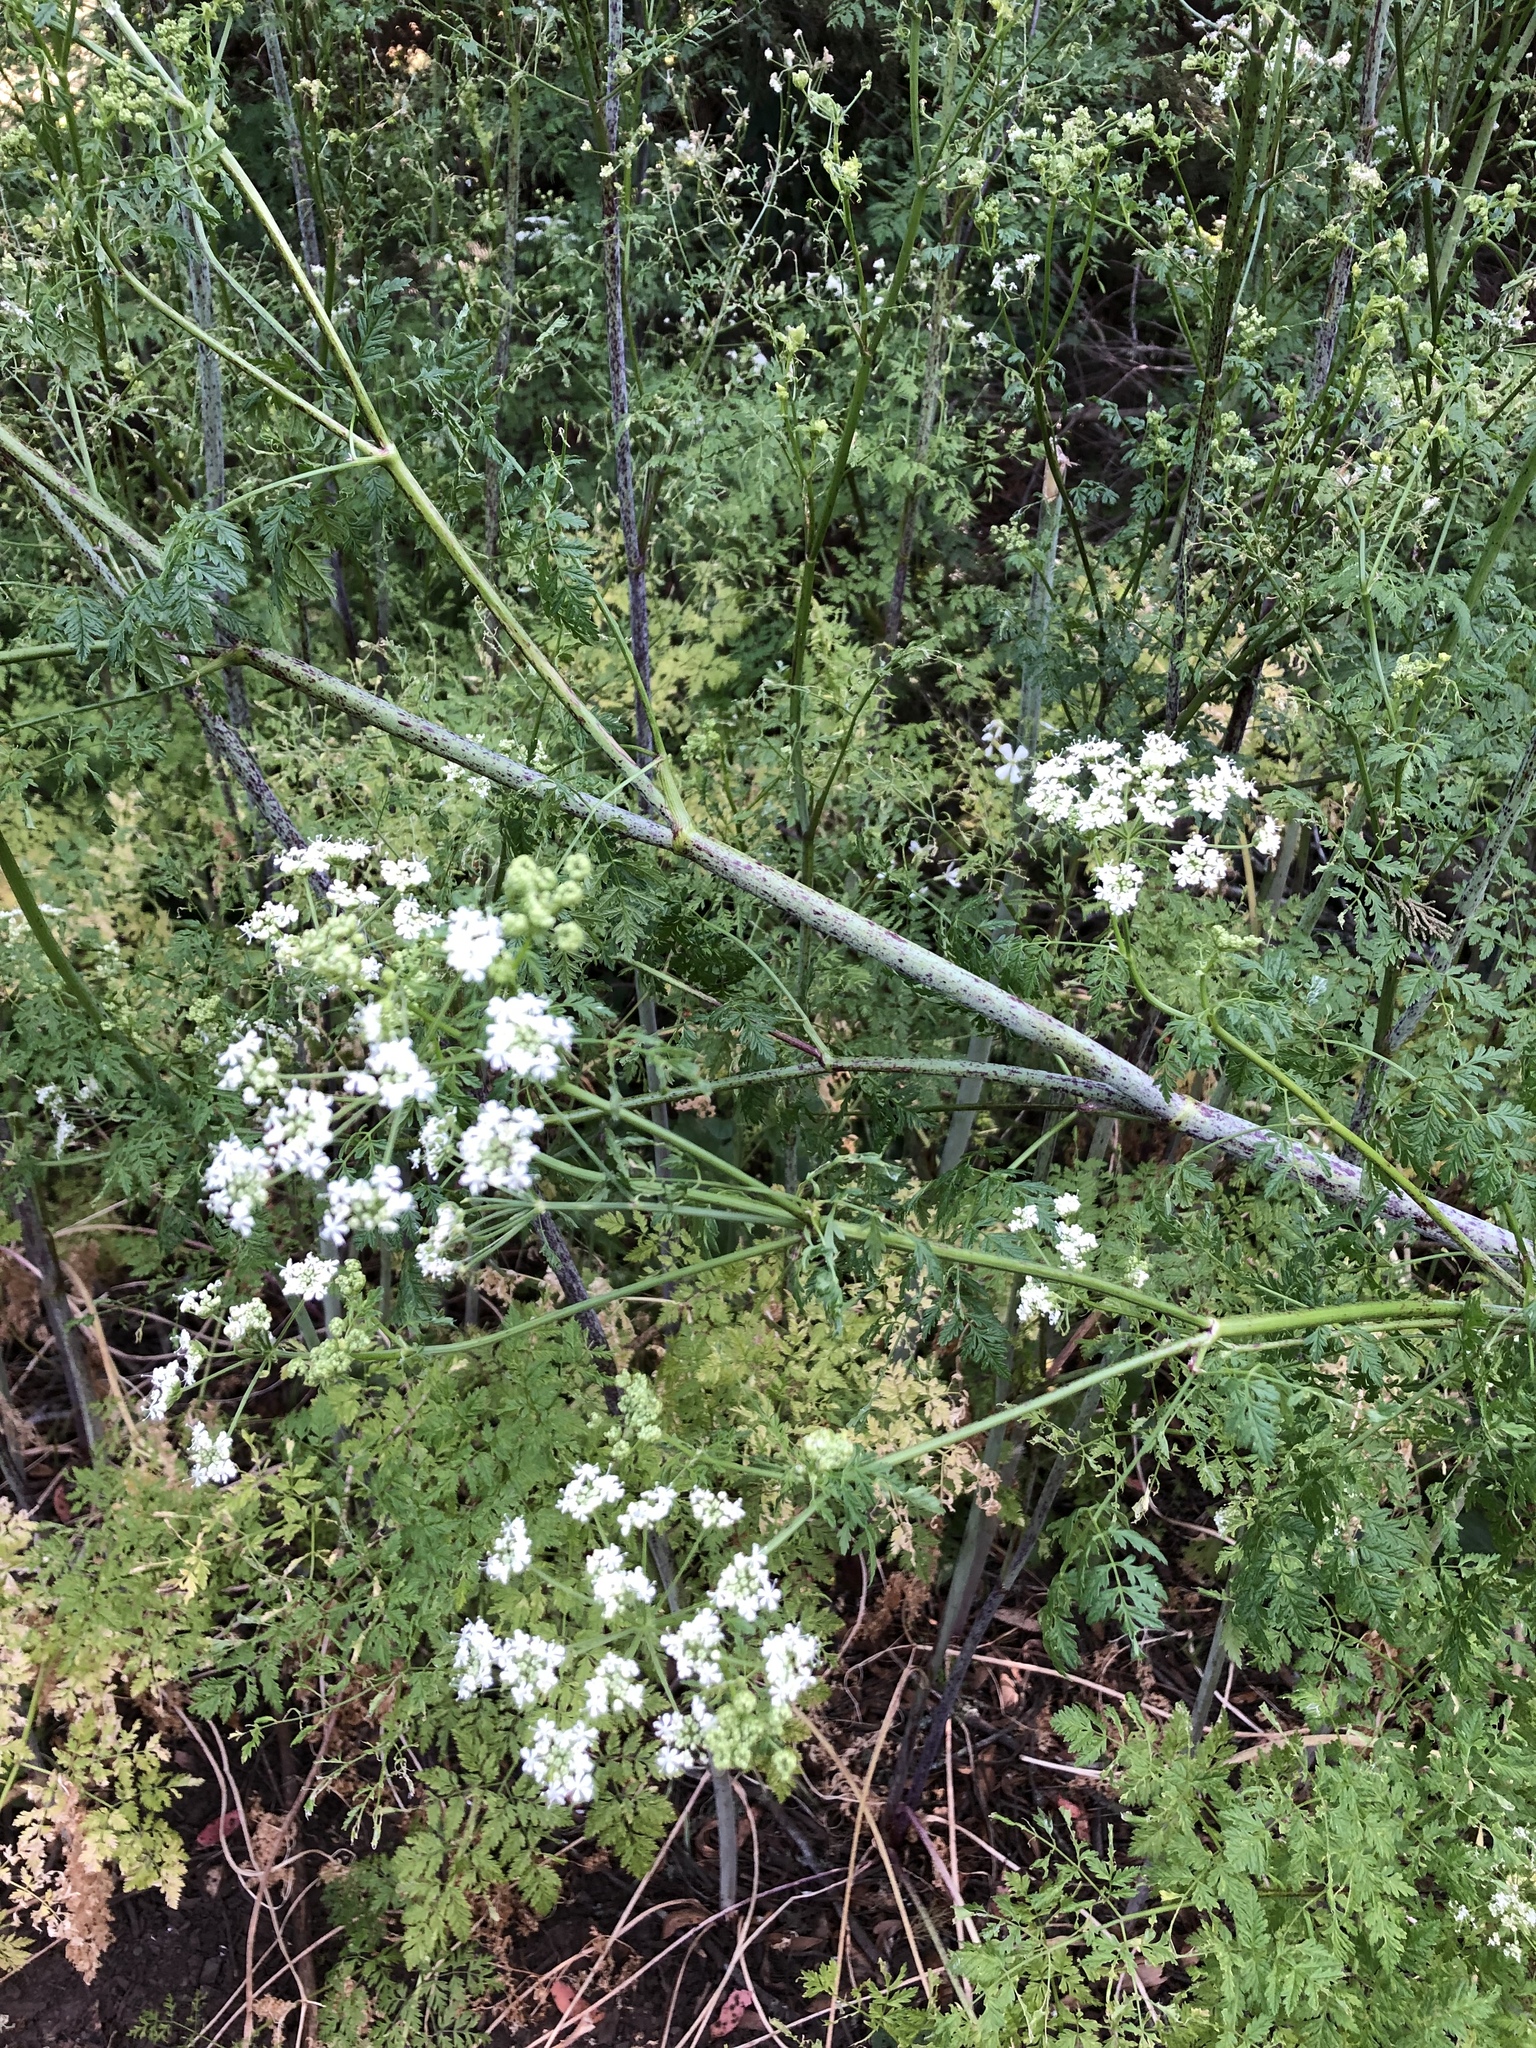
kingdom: Plantae
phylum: Tracheophyta
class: Magnoliopsida
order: Apiales
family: Apiaceae
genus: Conium
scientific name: Conium maculatum
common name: Hemlock
